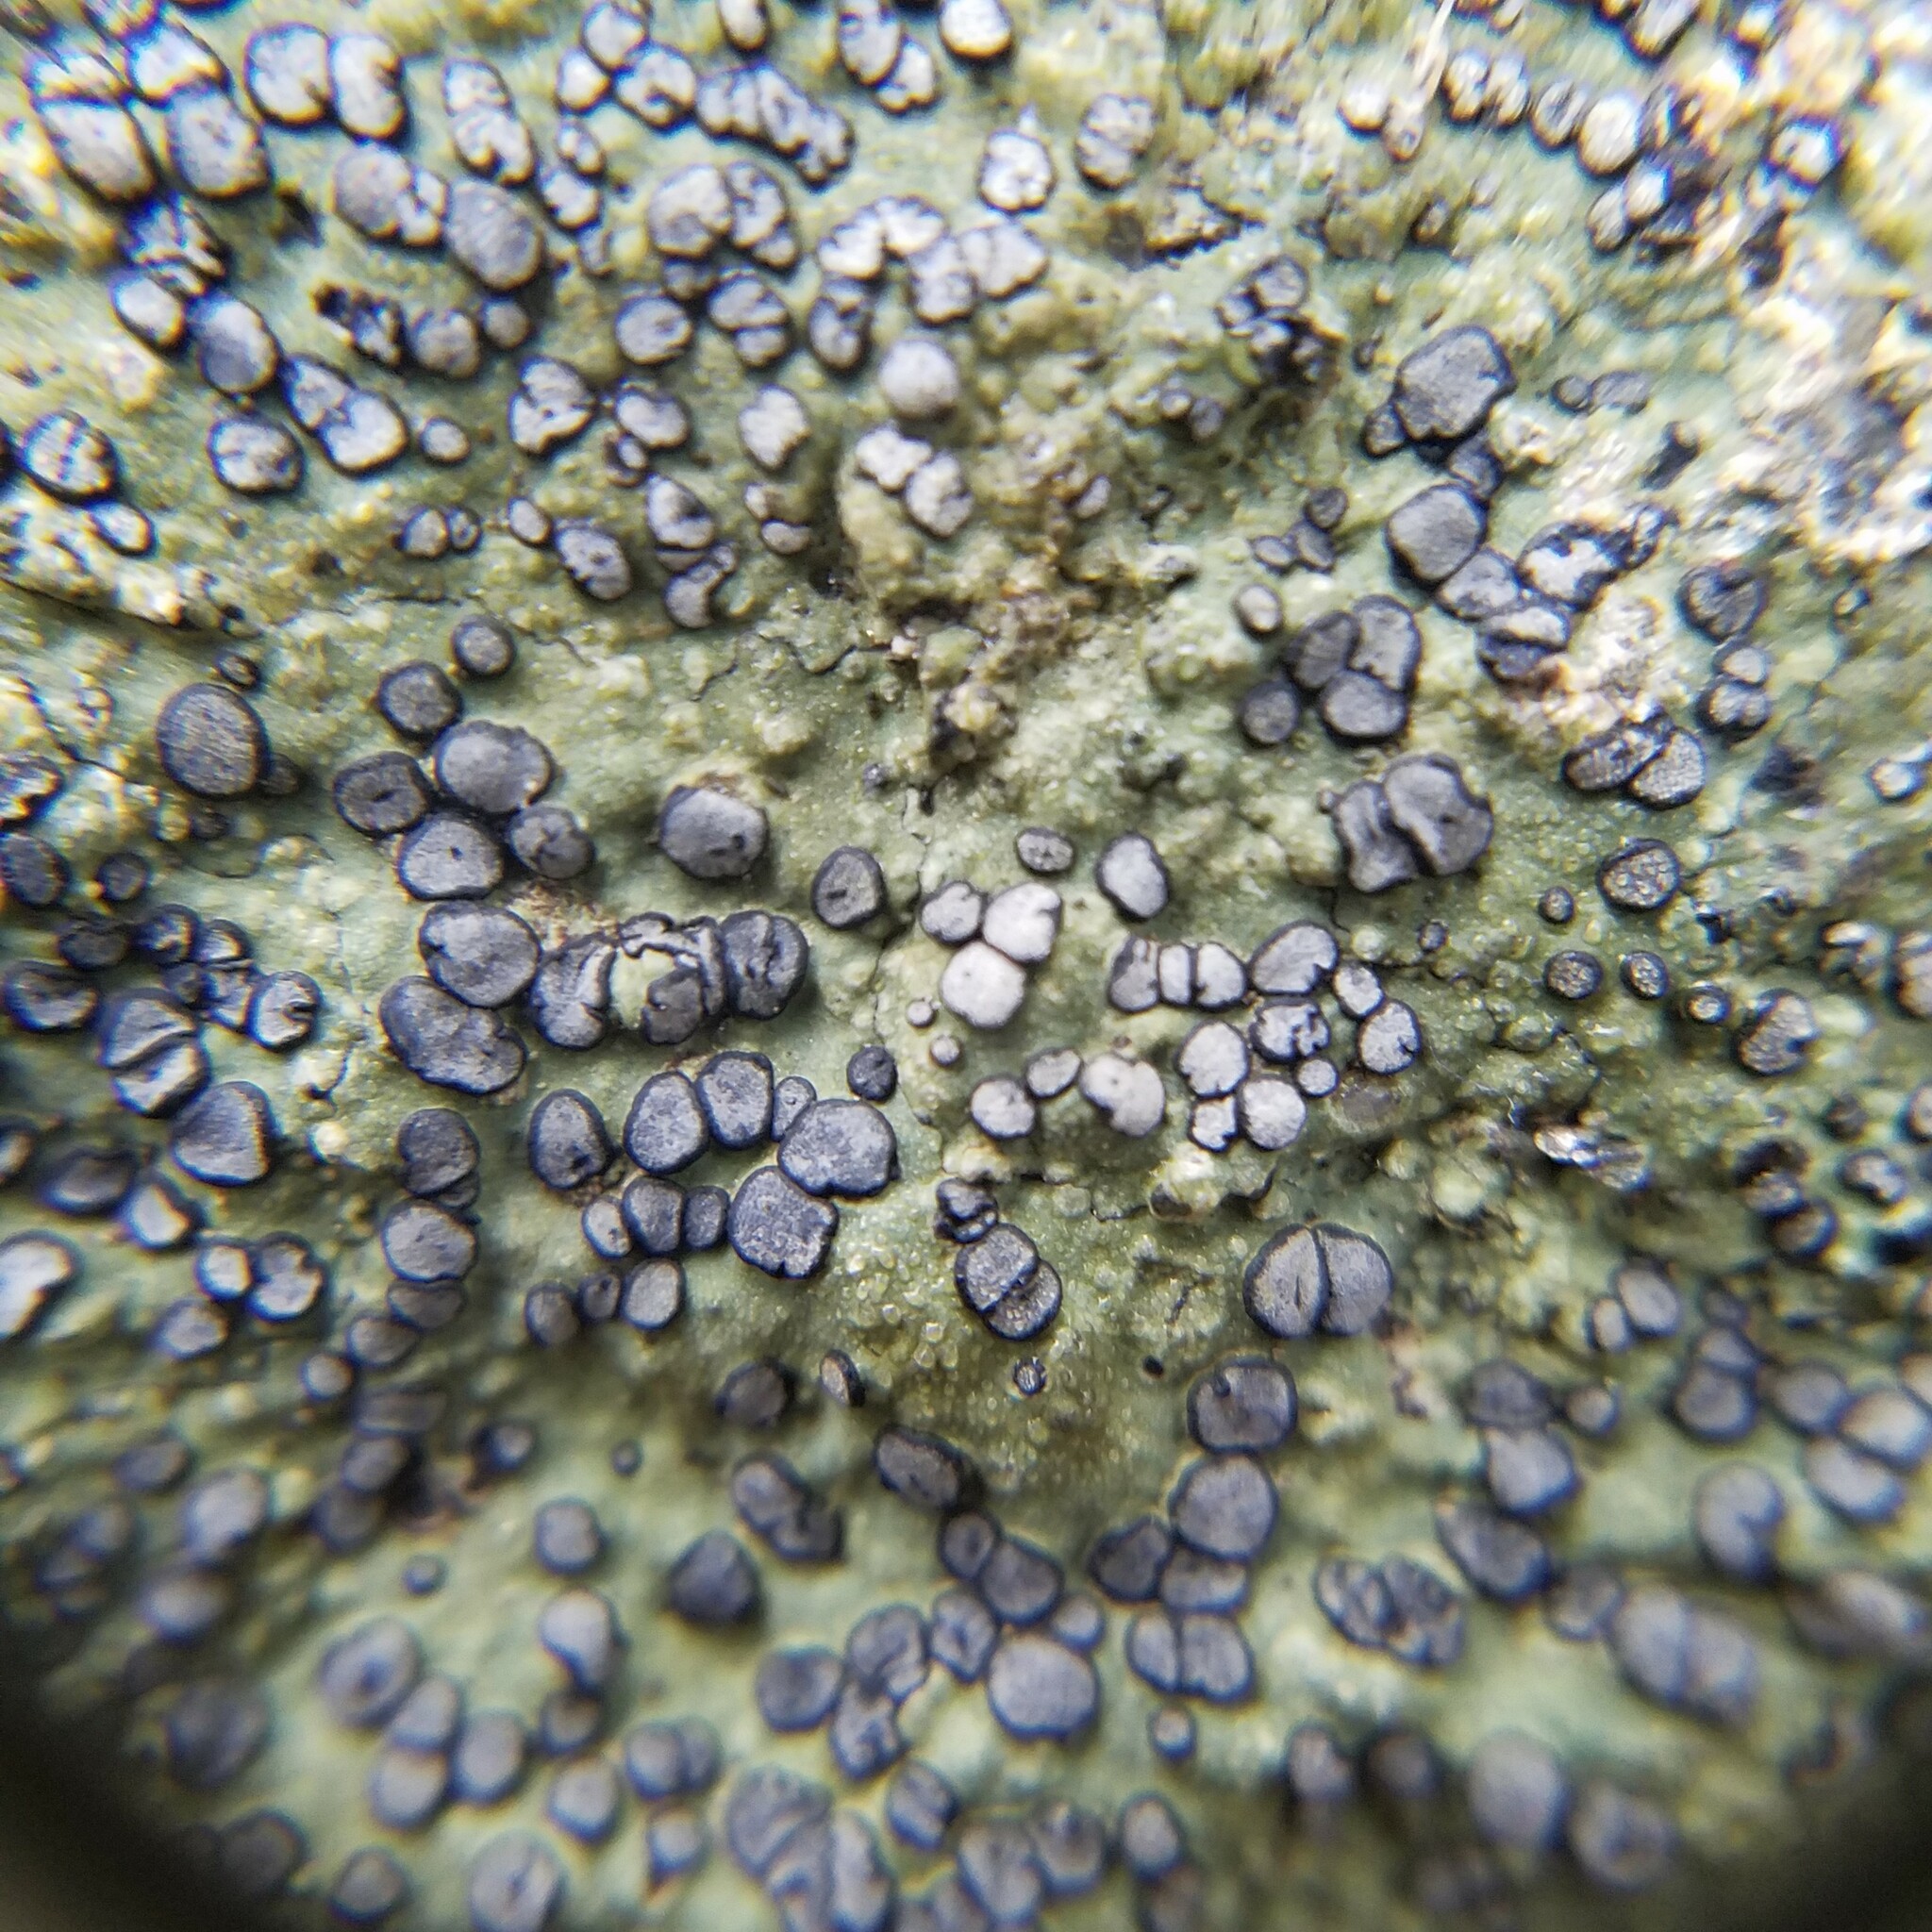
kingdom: Fungi
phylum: Ascomycota
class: Lecanoromycetes
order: Lecideales
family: Lecideaceae
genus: Porpidia
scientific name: Porpidia albocaerulescens
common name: Smokey-eyed boulder lichen
